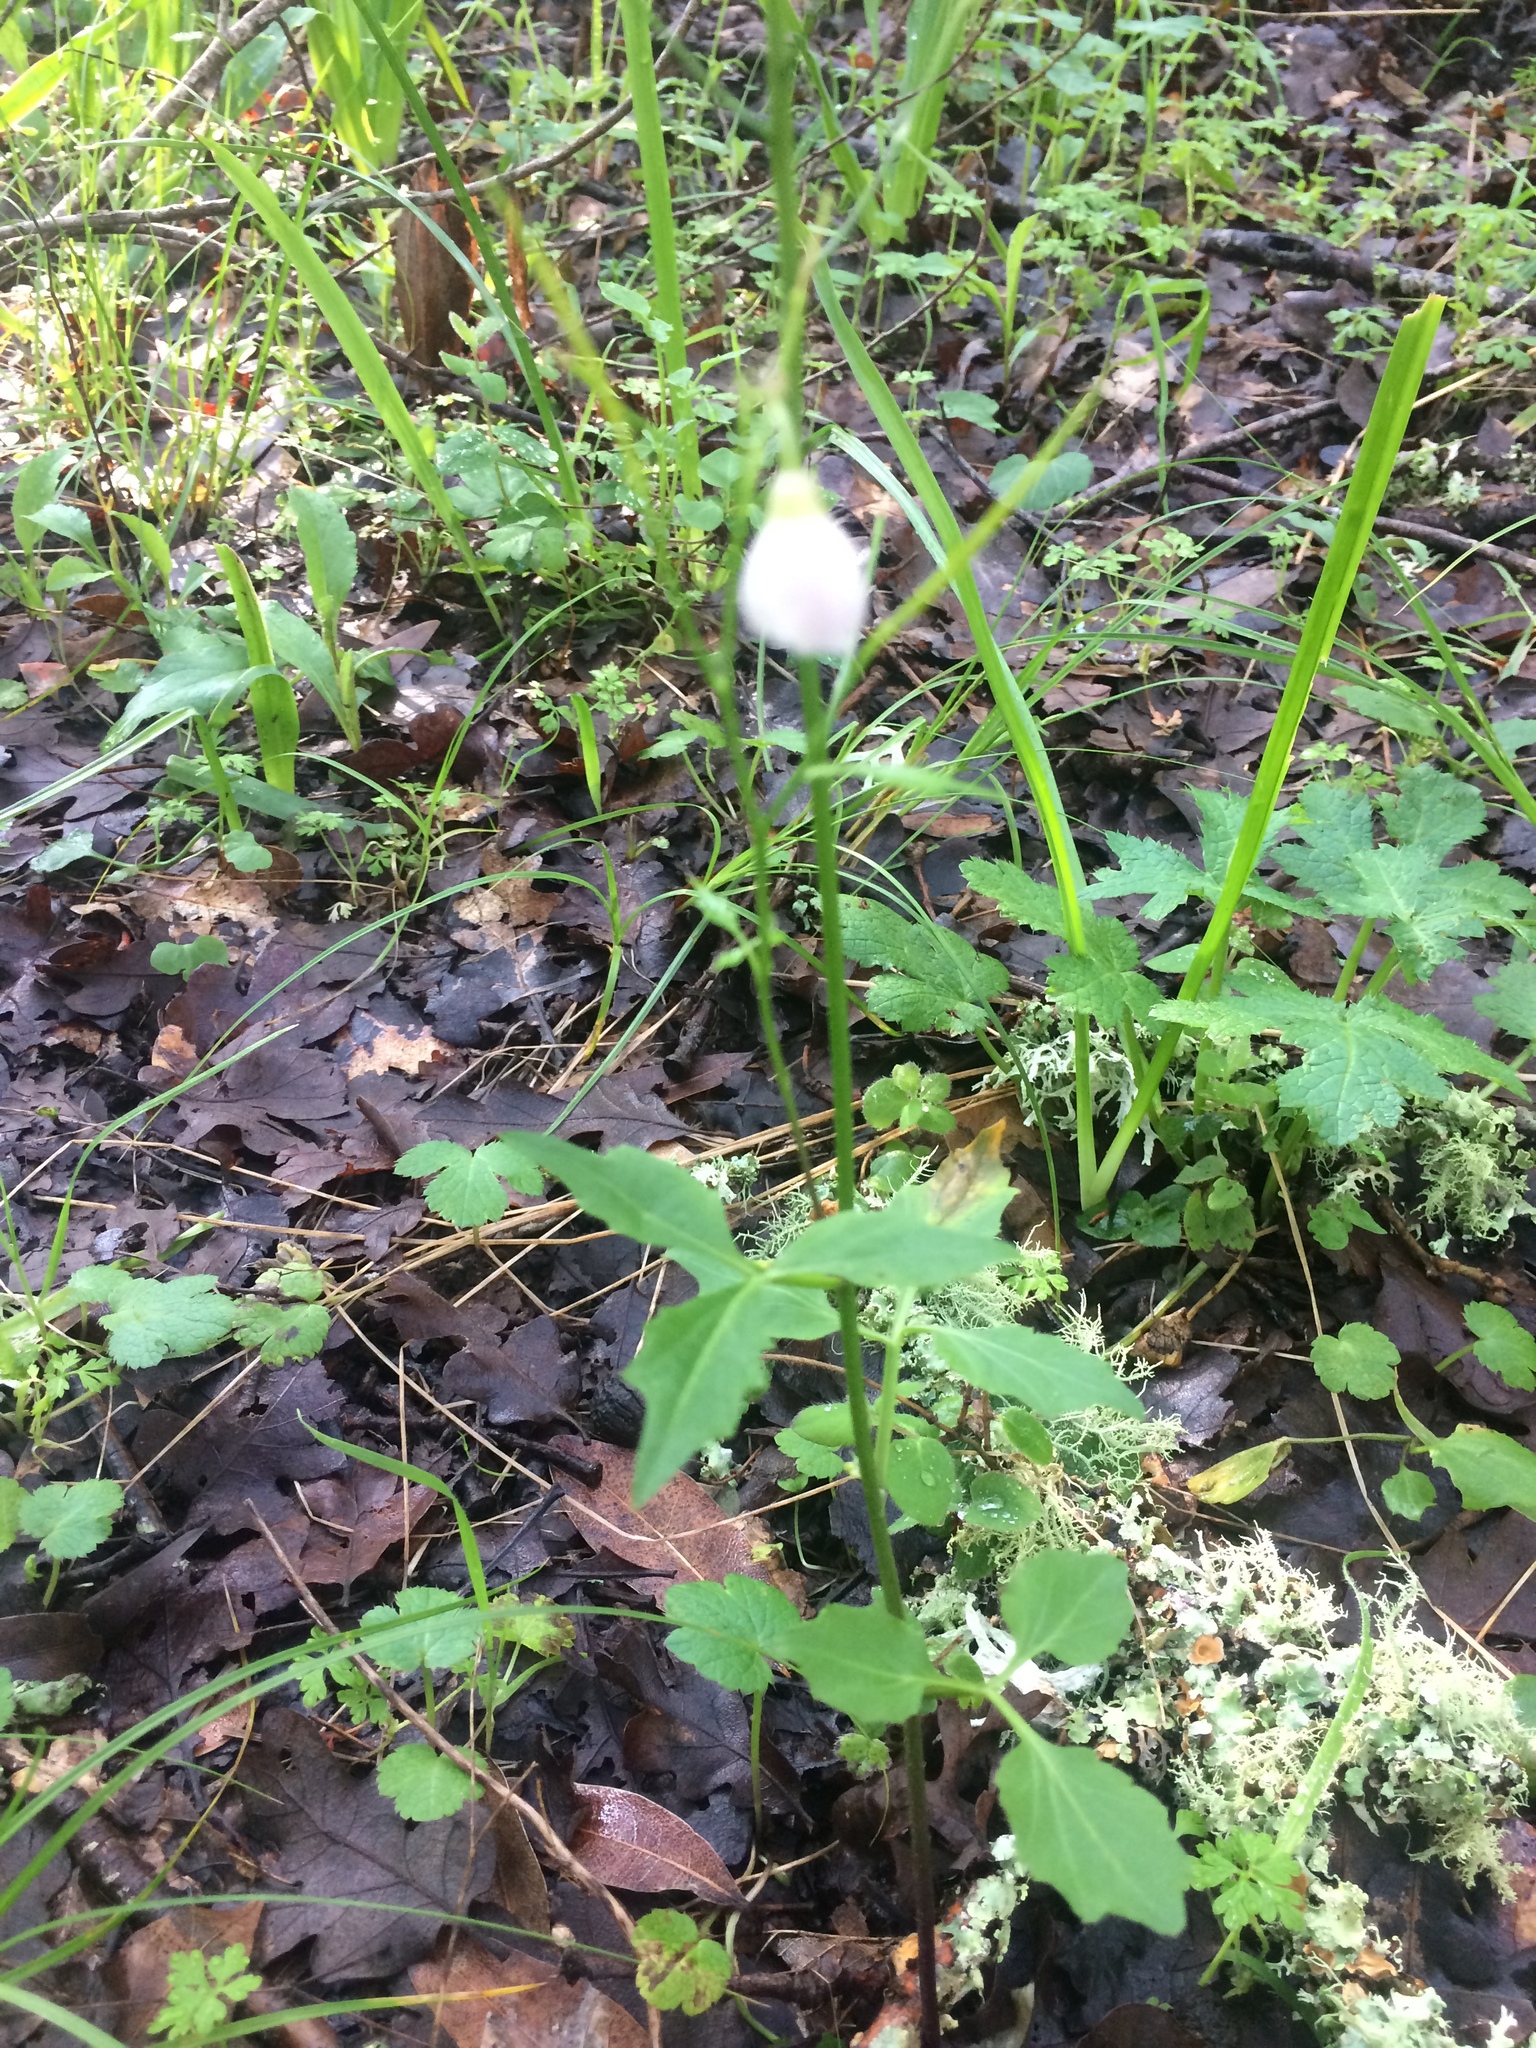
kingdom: Plantae
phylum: Tracheophyta
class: Magnoliopsida
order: Brassicales
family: Brassicaceae
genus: Cardamine
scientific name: Cardamine californica
